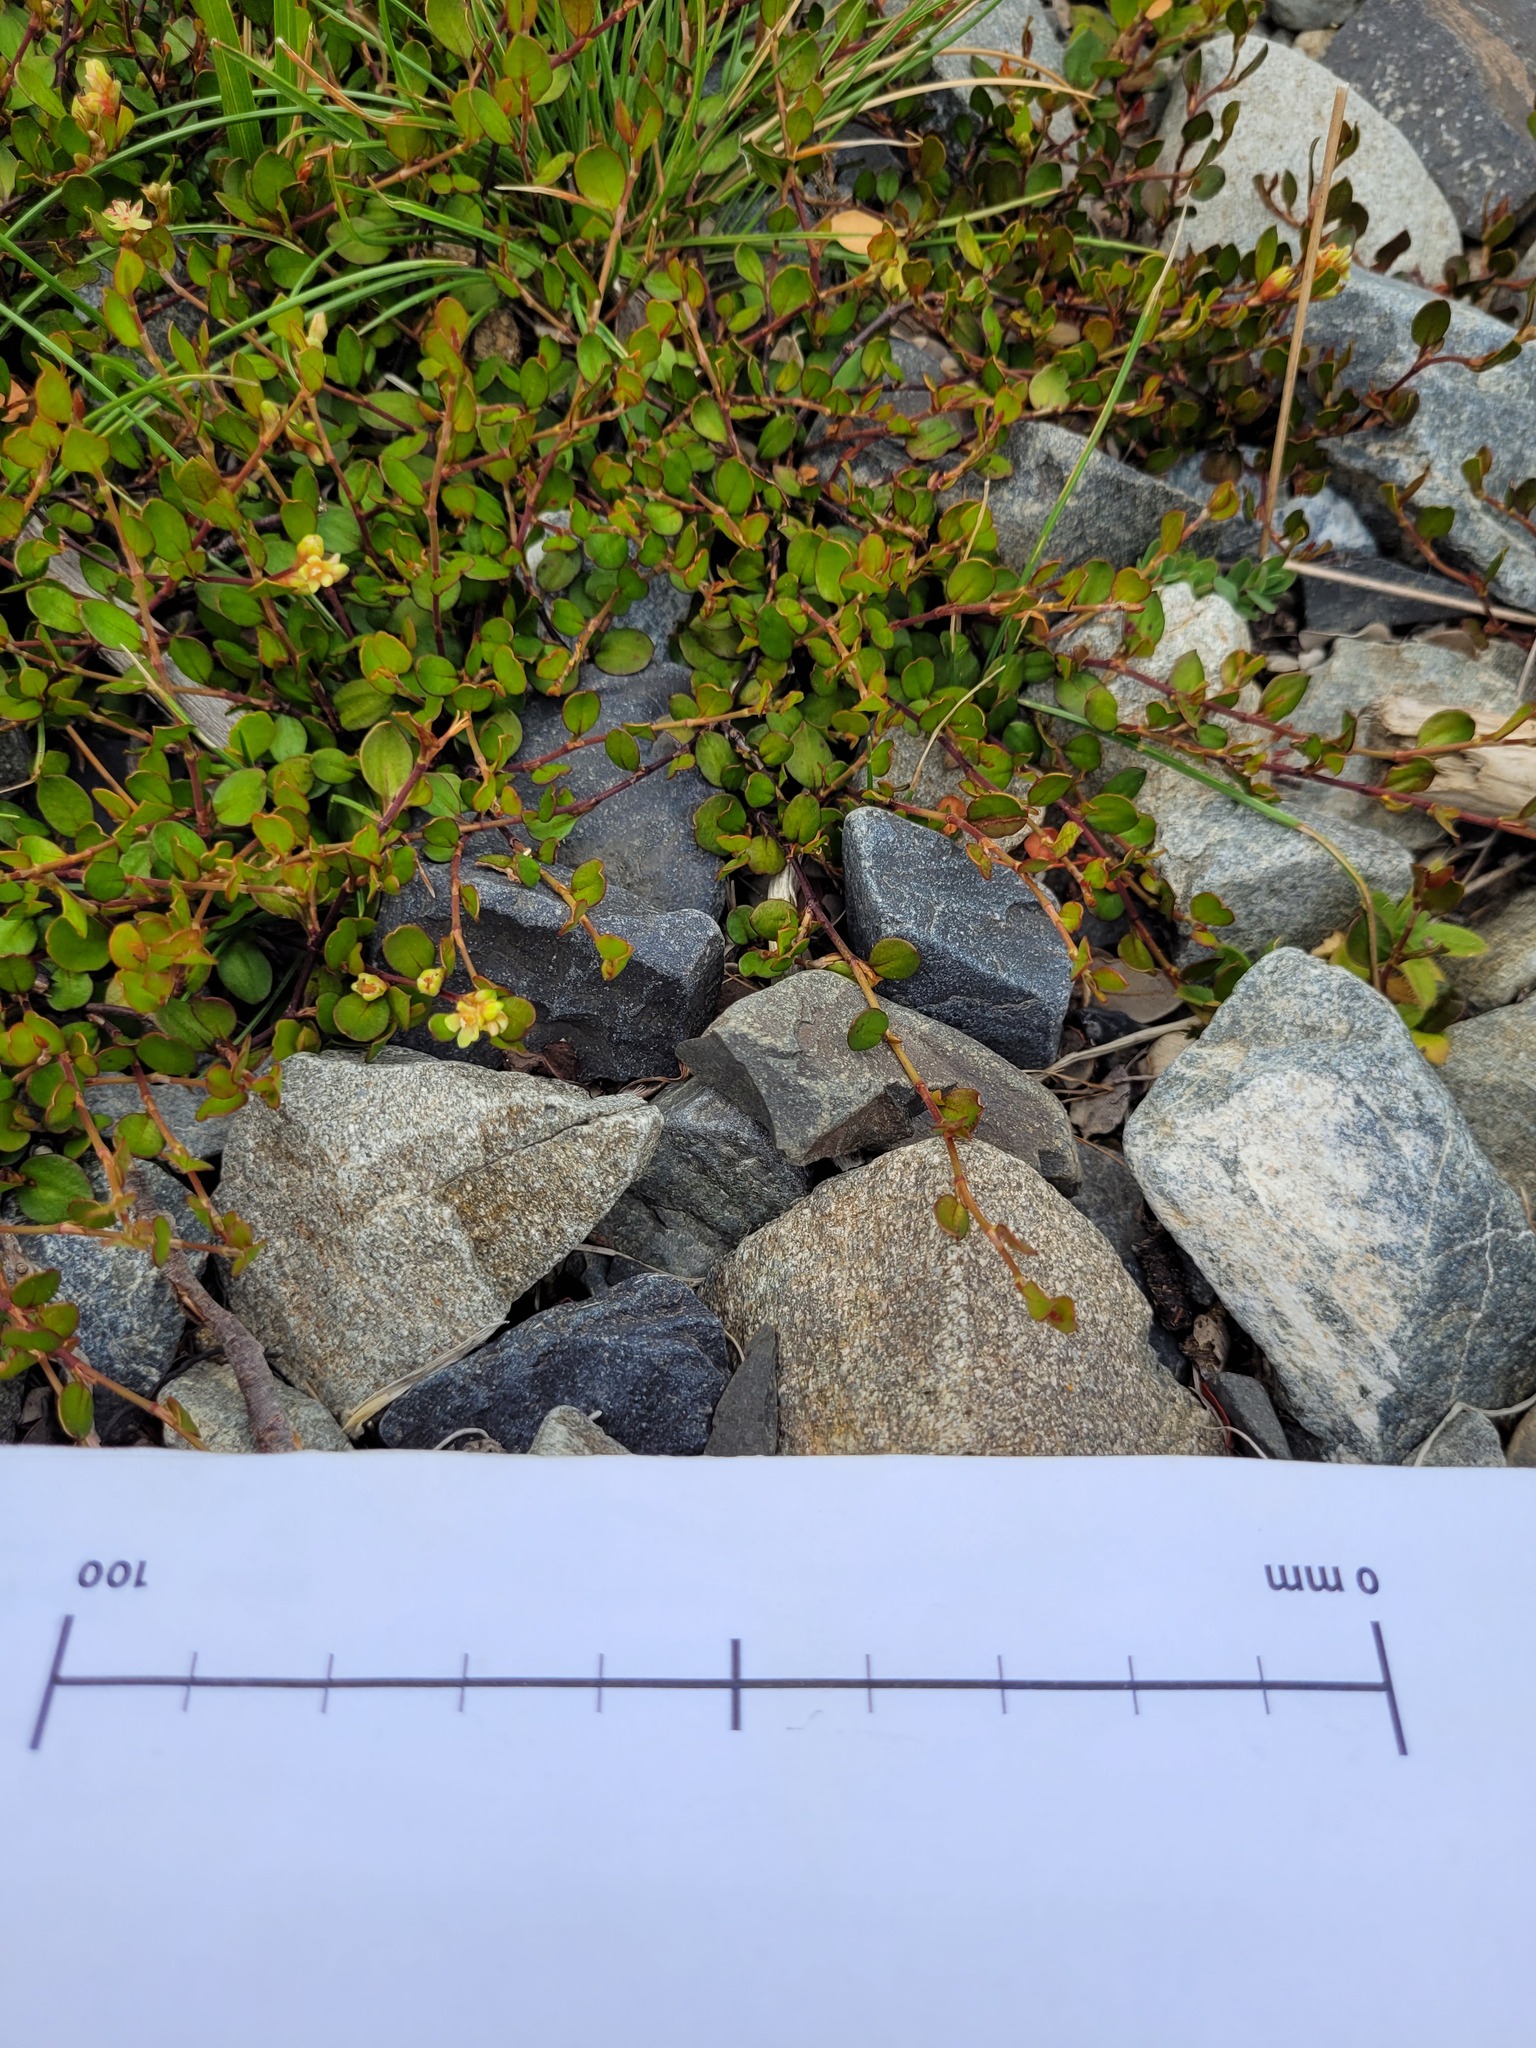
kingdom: Plantae
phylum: Tracheophyta
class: Magnoliopsida
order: Caryophyllales
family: Polygonaceae
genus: Muehlenbeckia
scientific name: Muehlenbeckia axillaris
